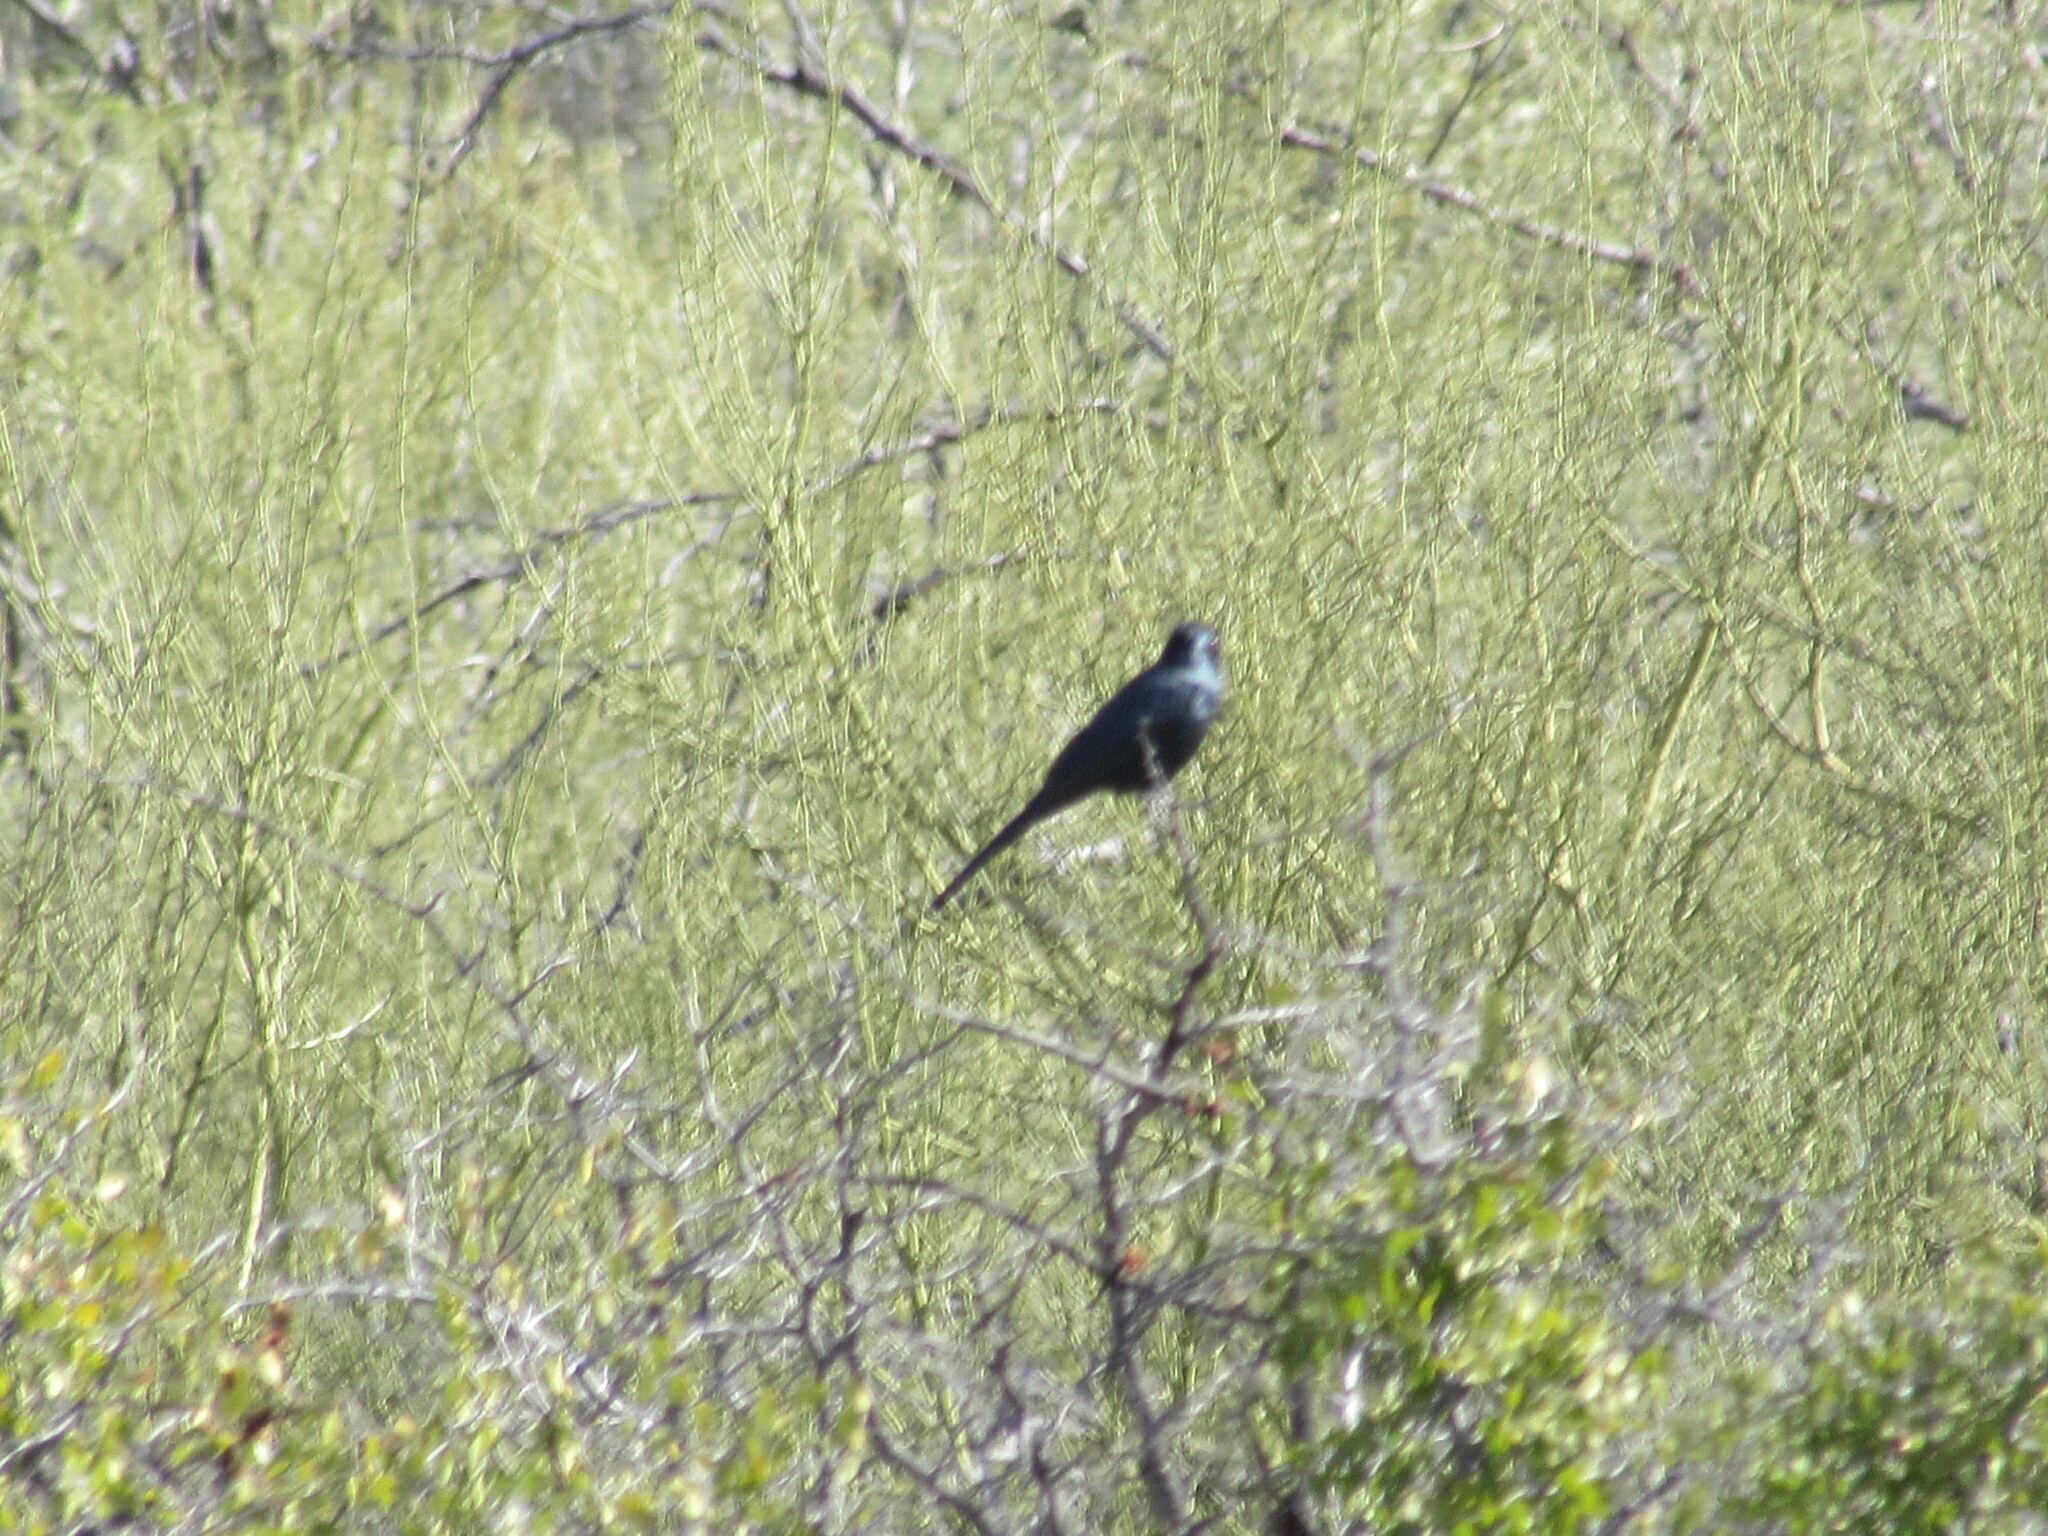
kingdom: Animalia
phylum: Chordata
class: Aves
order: Passeriformes
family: Ptilogonatidae
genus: Phainopepla
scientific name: Phainopepla nitens
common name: Phainopepla
